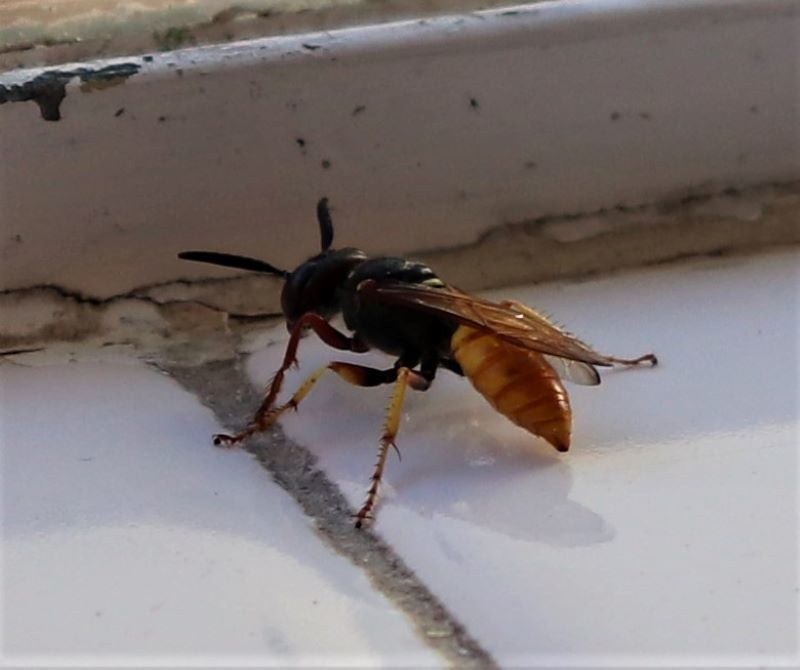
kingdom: Animalia
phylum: Arthropoda
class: Insecta
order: Hymenoptera
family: Crabronidae
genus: Philanthus
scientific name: Philanthus triangulum
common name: Bee wolf
